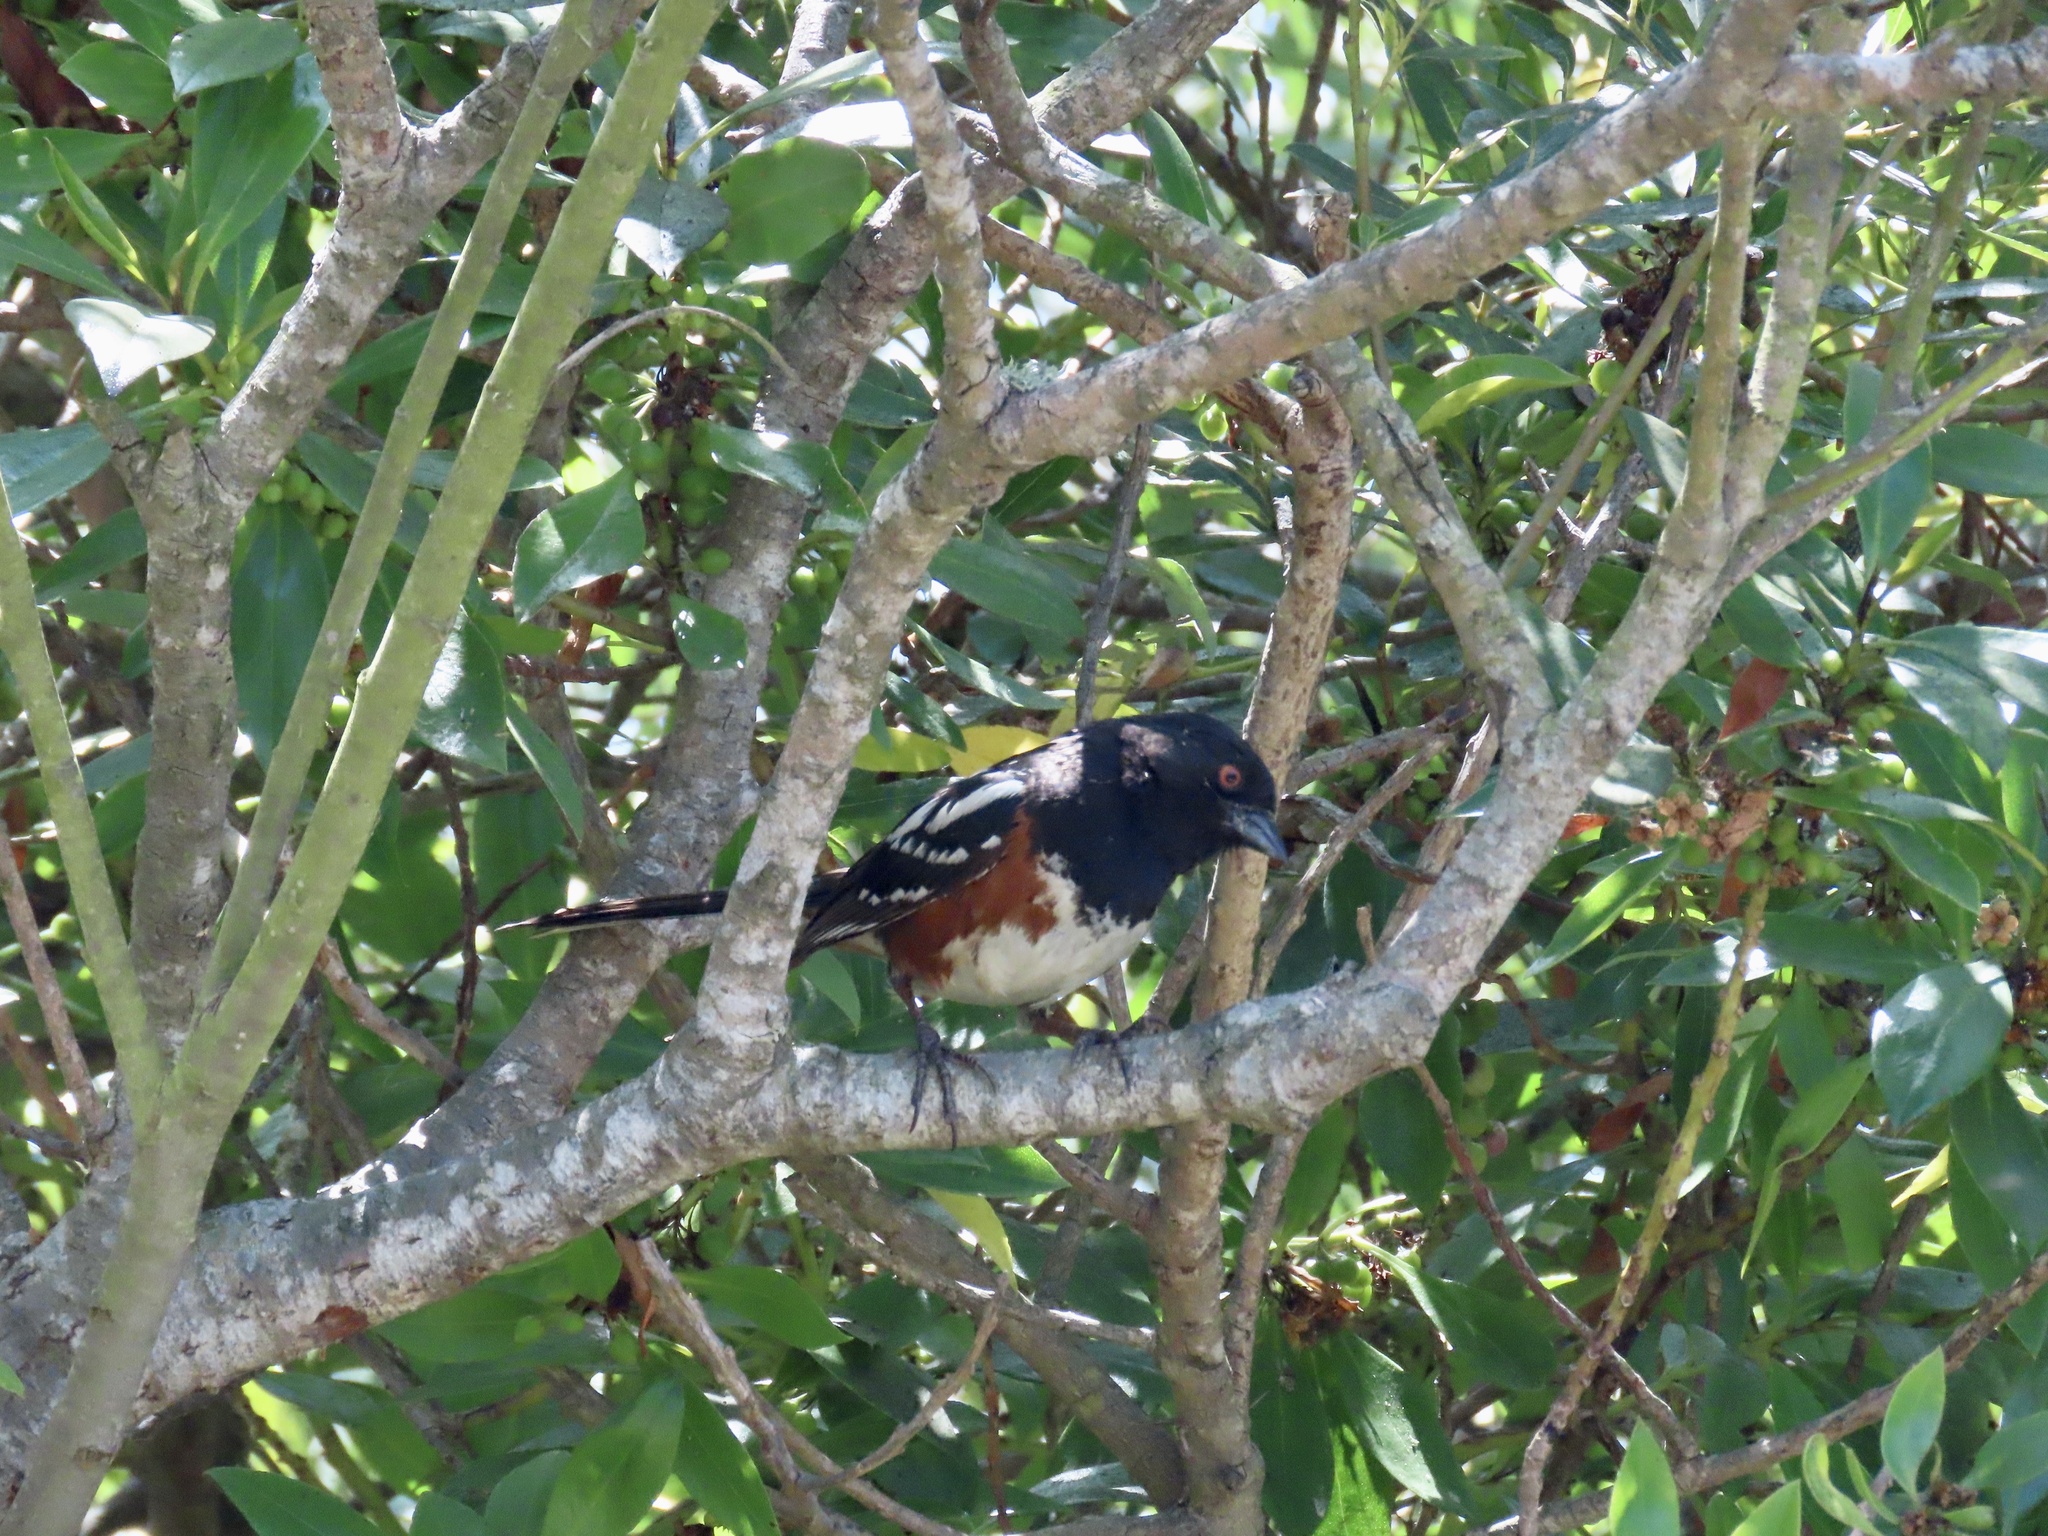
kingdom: Animalia
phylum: Chordata
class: Aves
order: Passeriformes
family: Passerellidae
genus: Pipilo
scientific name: Pipilo maculatus
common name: Spotted towhee
